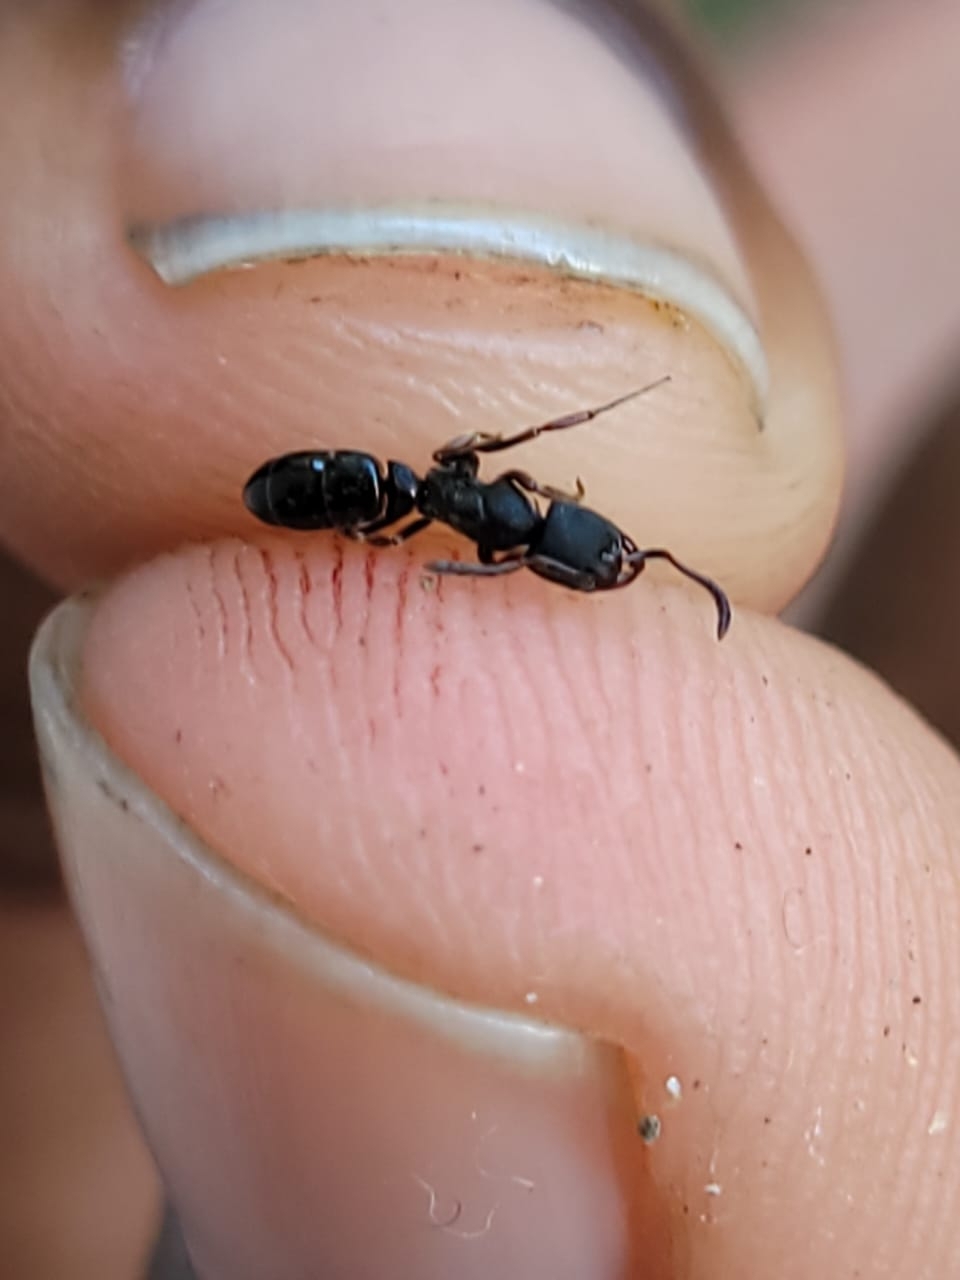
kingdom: Animalia
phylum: Arthropoda
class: Insecta
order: Hymenoptera
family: Formicidae
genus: Ectomomyrmex
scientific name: Ectomomyrmex
